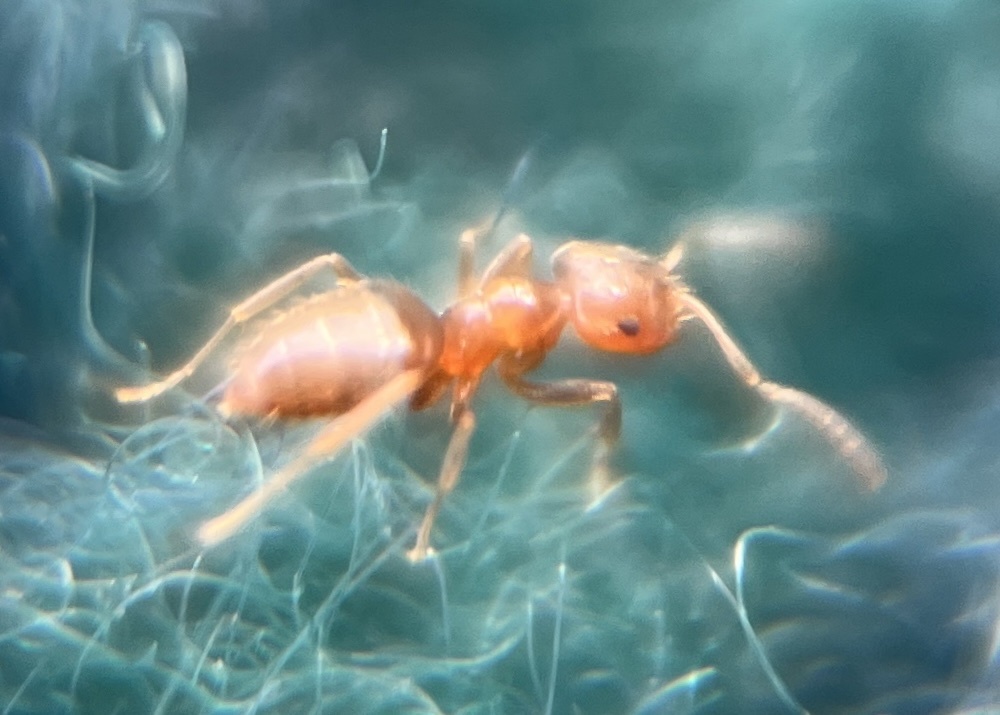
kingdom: Animalia
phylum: Arthropoda
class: Insecta
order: Hymenoptera
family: Formicidae
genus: Brachymyrmex
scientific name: Brachymyrmex obscurior
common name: Obscure rover ant
